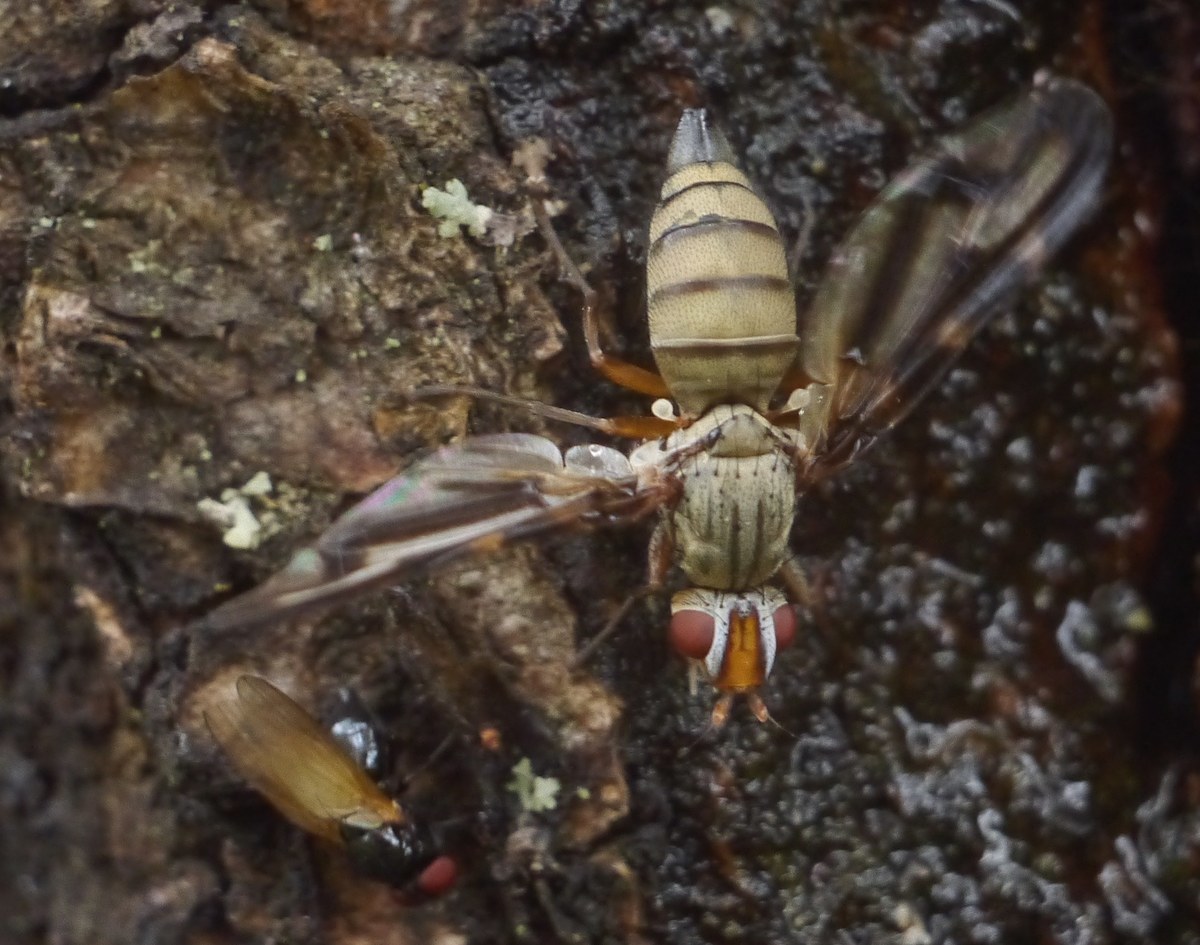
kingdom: Animalia
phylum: Arthropoda
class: Insecta
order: Diptera
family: Ulidiidae
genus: Otites
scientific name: Otites lamed
